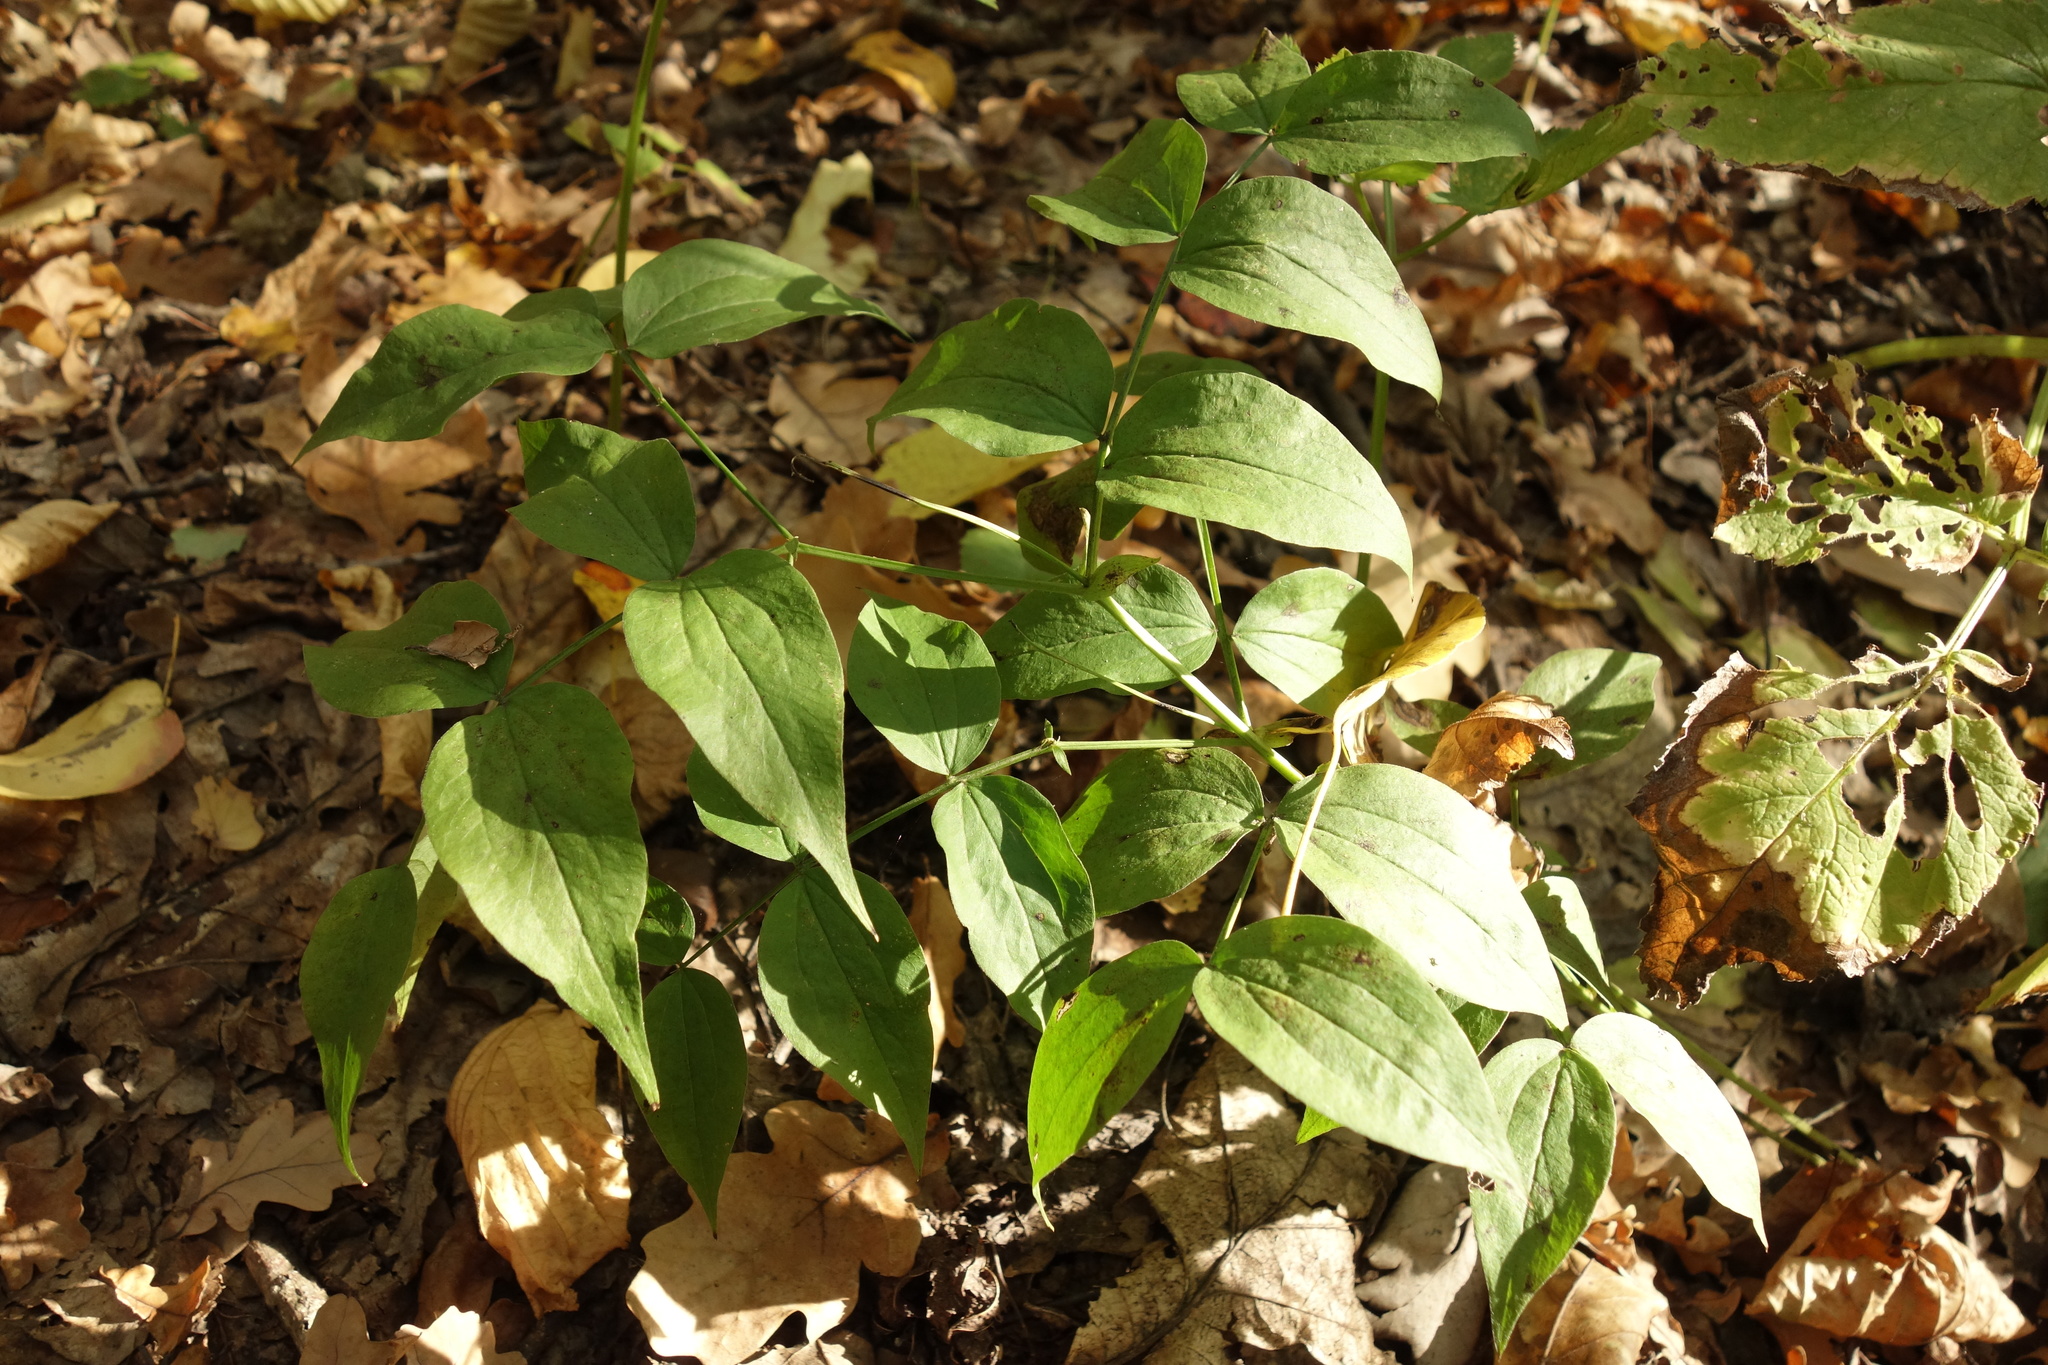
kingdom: Plantae
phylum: Tracheophyta
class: Magnoliopsida
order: Fabales
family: Fabaceae
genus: Lathyrus
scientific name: Lathyrus vernus
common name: Spring pea
